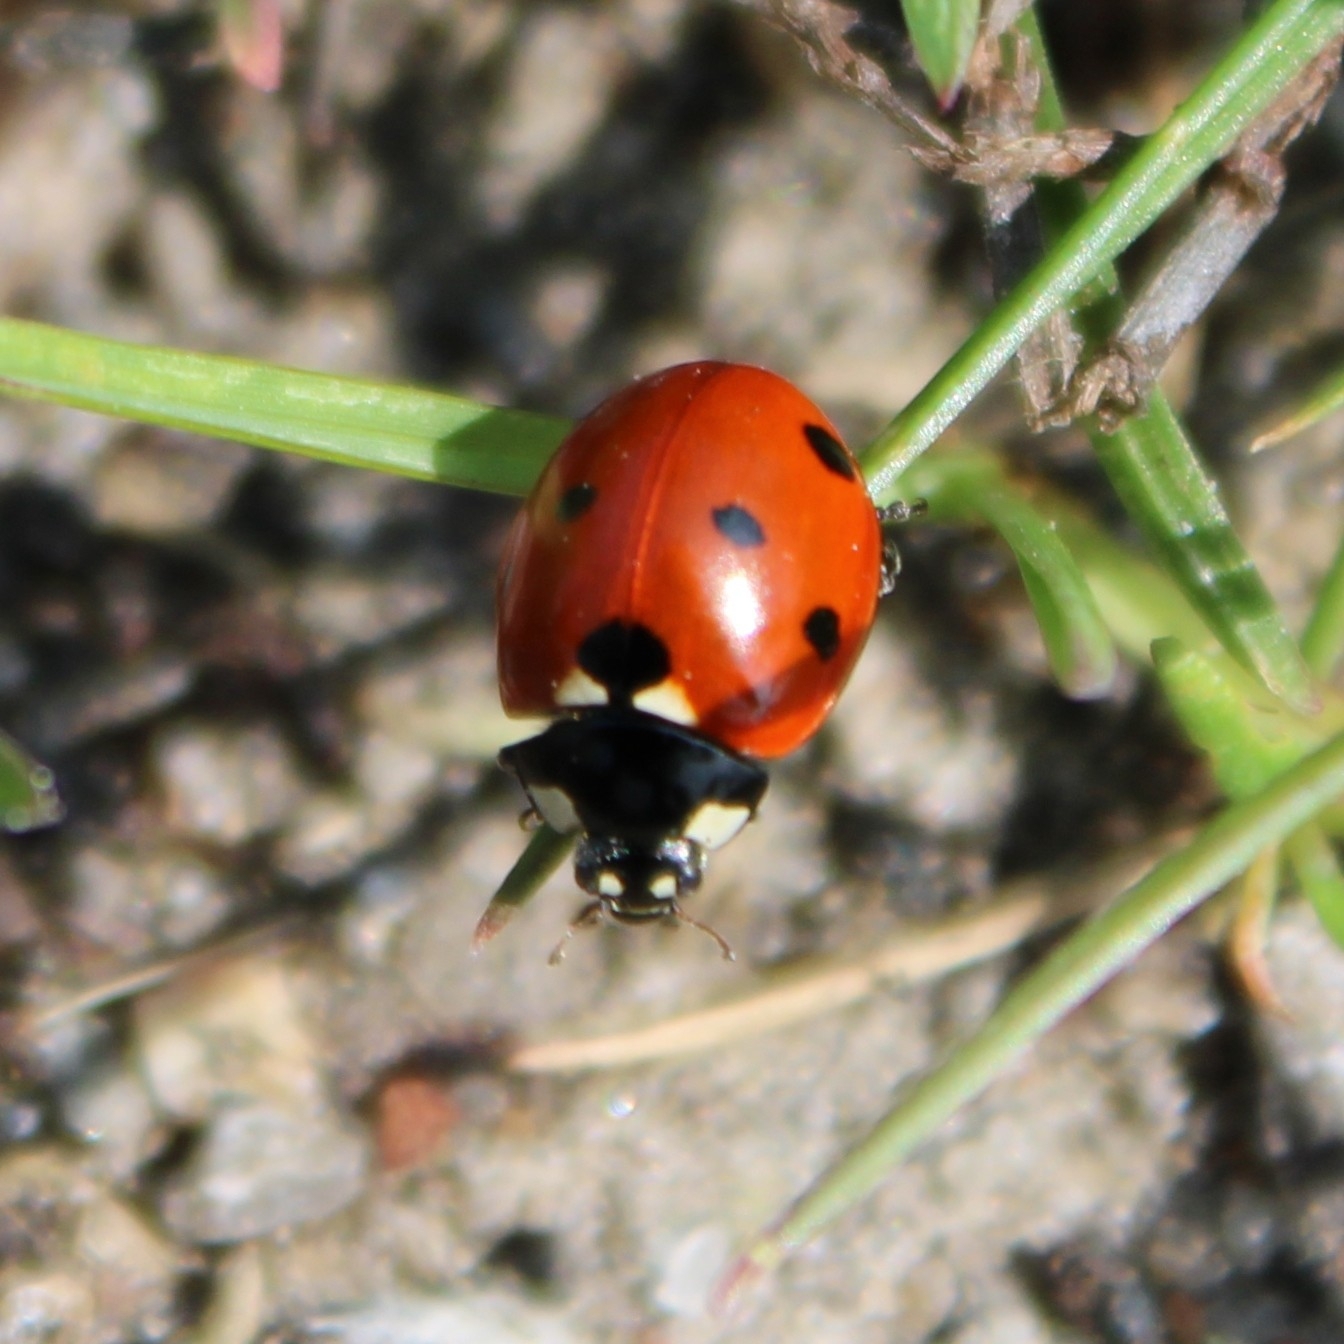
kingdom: Animalia
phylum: Arthropoda
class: Insecta
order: Coleoptera
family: Coccinellidae
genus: Coccinella
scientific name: Coccinella septempunctata
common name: Sevenspotted lady beetle
